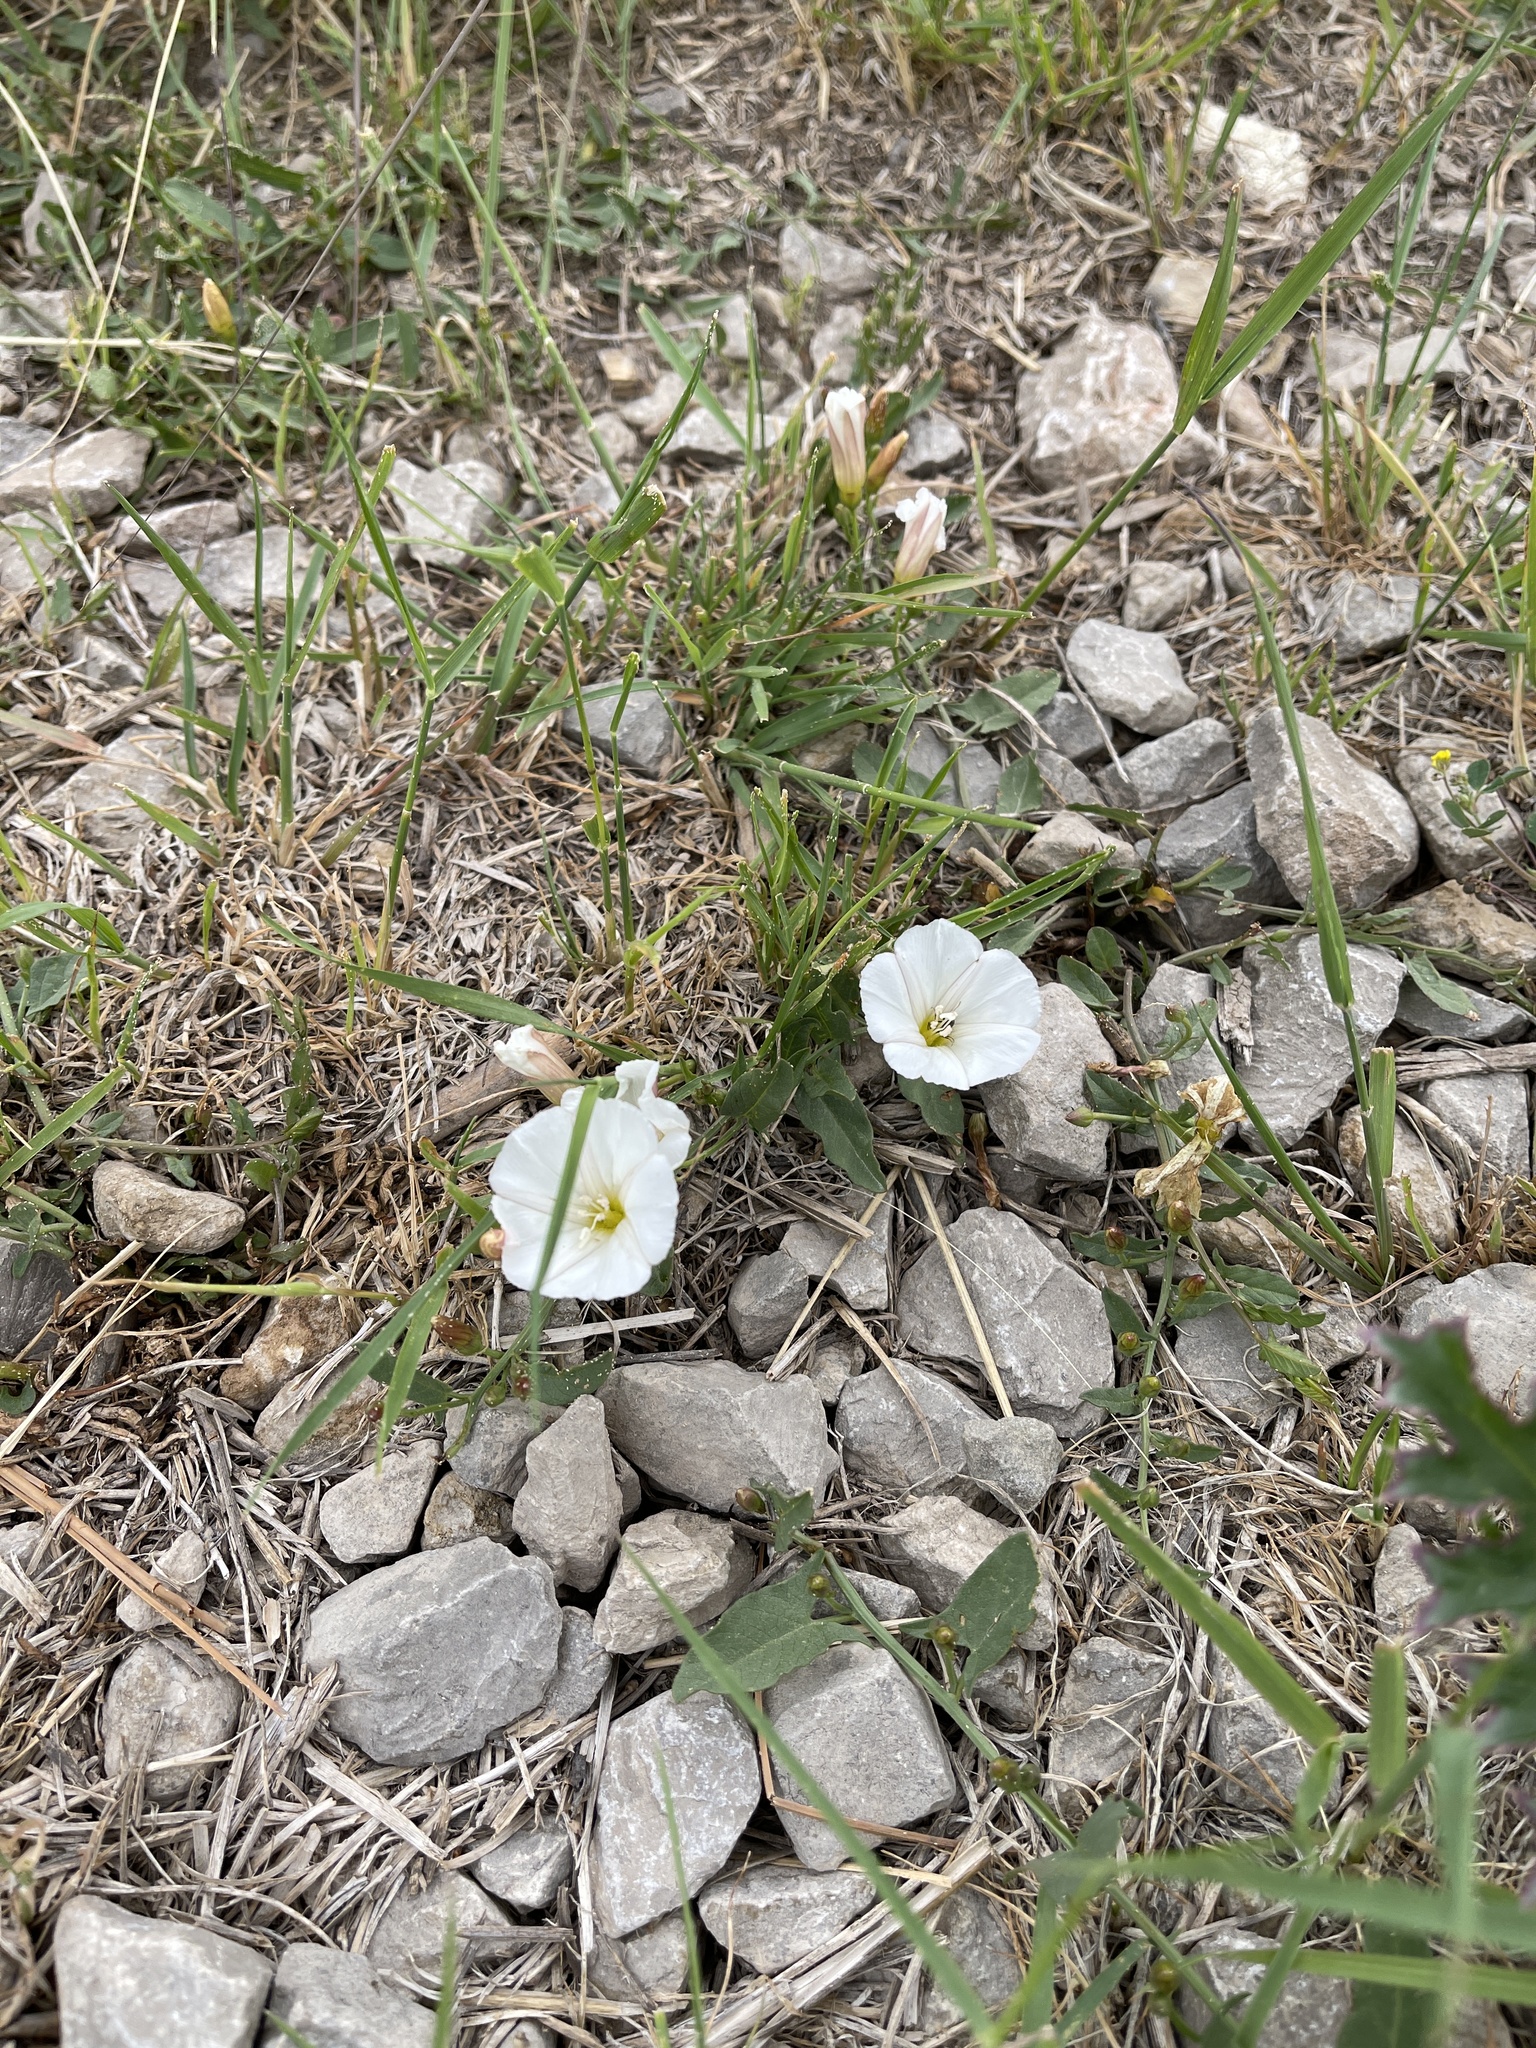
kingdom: Plantae
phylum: Tracheophyta
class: Magnoliopsida
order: Solanales
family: Convolvulaceae
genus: Convolvulus
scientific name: Convolvulus arvensis
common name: Field bindweed
